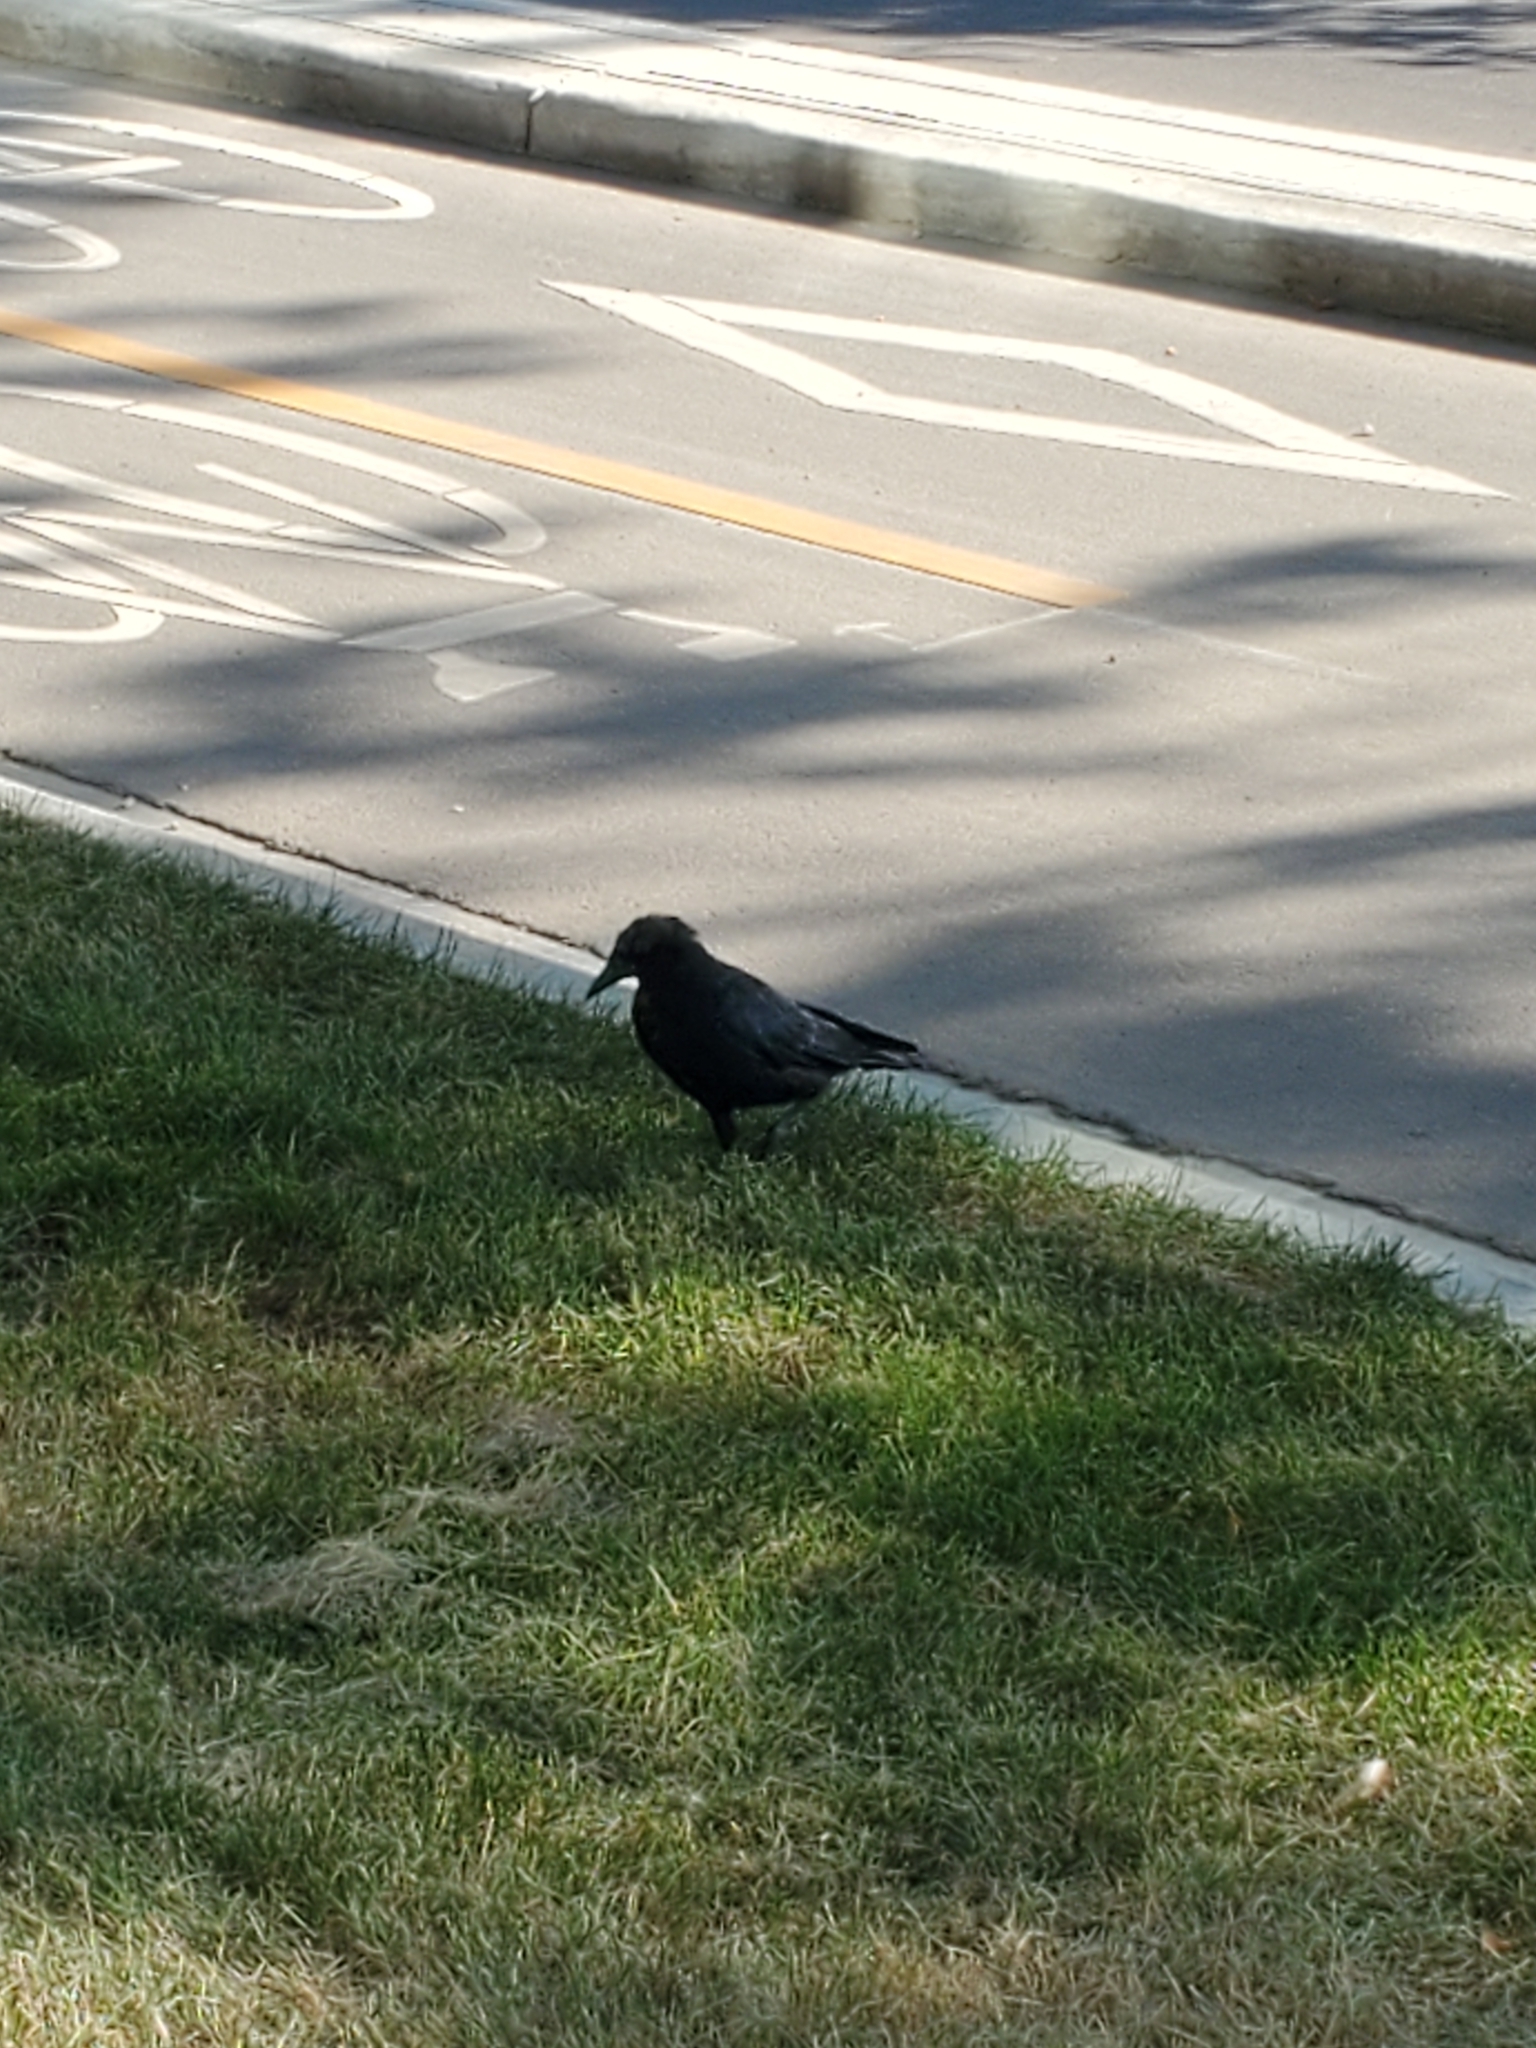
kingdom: Animalia
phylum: Chordata
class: Aves
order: Passeriformes
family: Corvidae
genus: Corvus
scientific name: Corvus brachyrhynchos
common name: American crow
